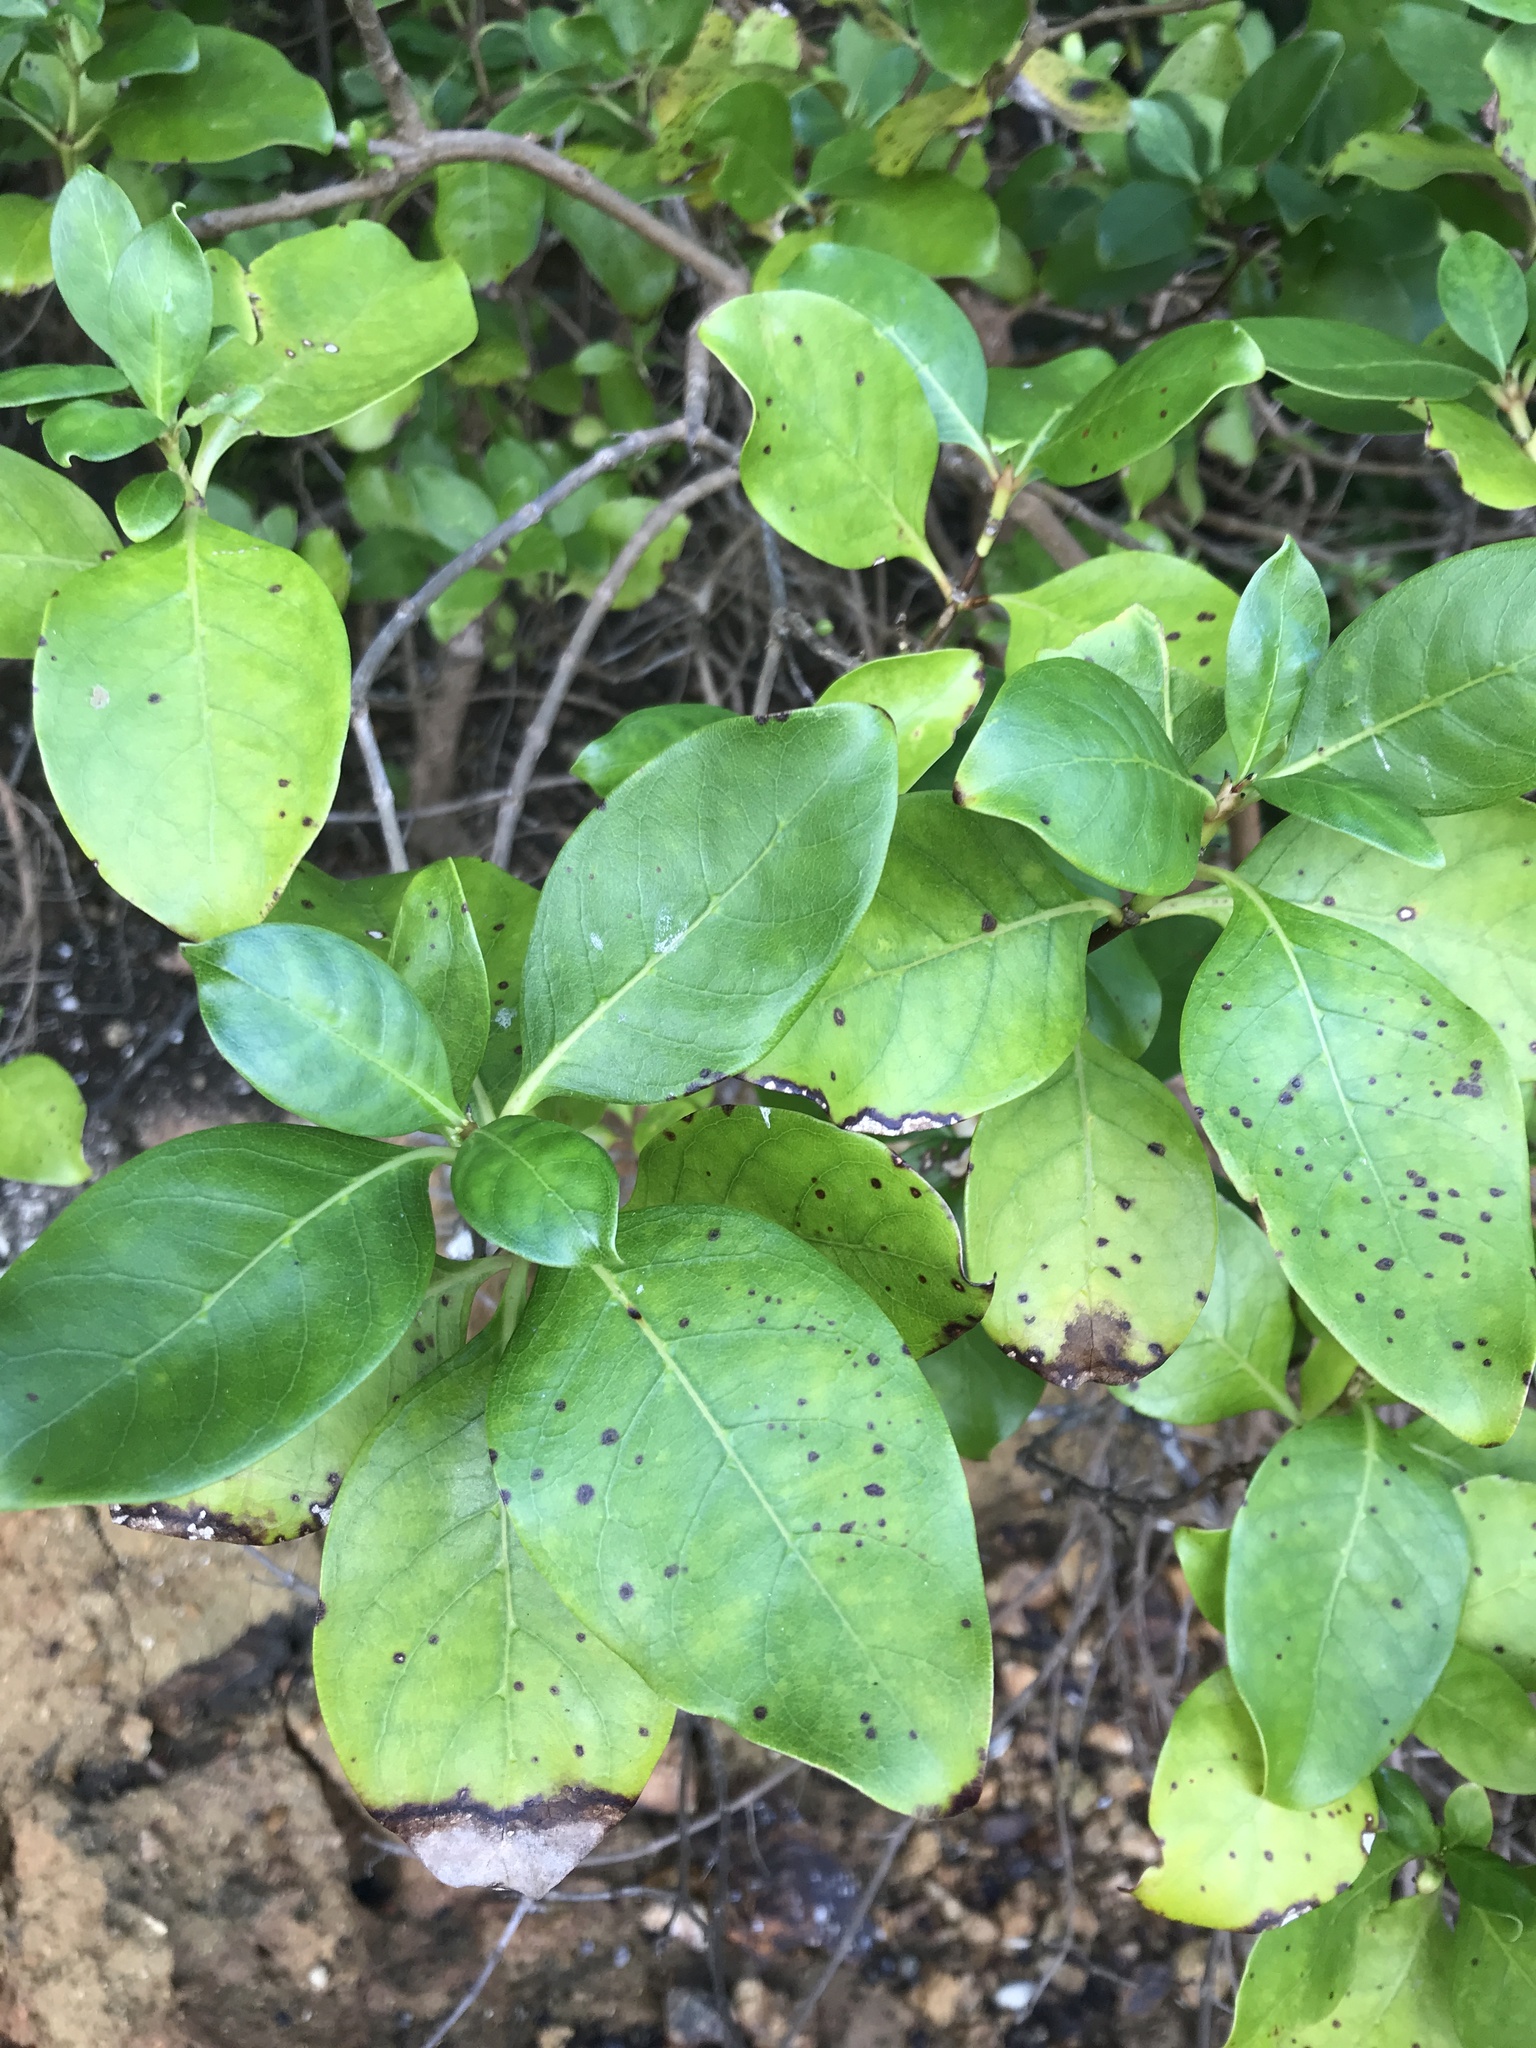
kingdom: Plantae
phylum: Tracheophyta
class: Magnoliopsida
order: Gentianales
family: Rubiaceae
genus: Coprosma
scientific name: Coprosma macrocarpa
